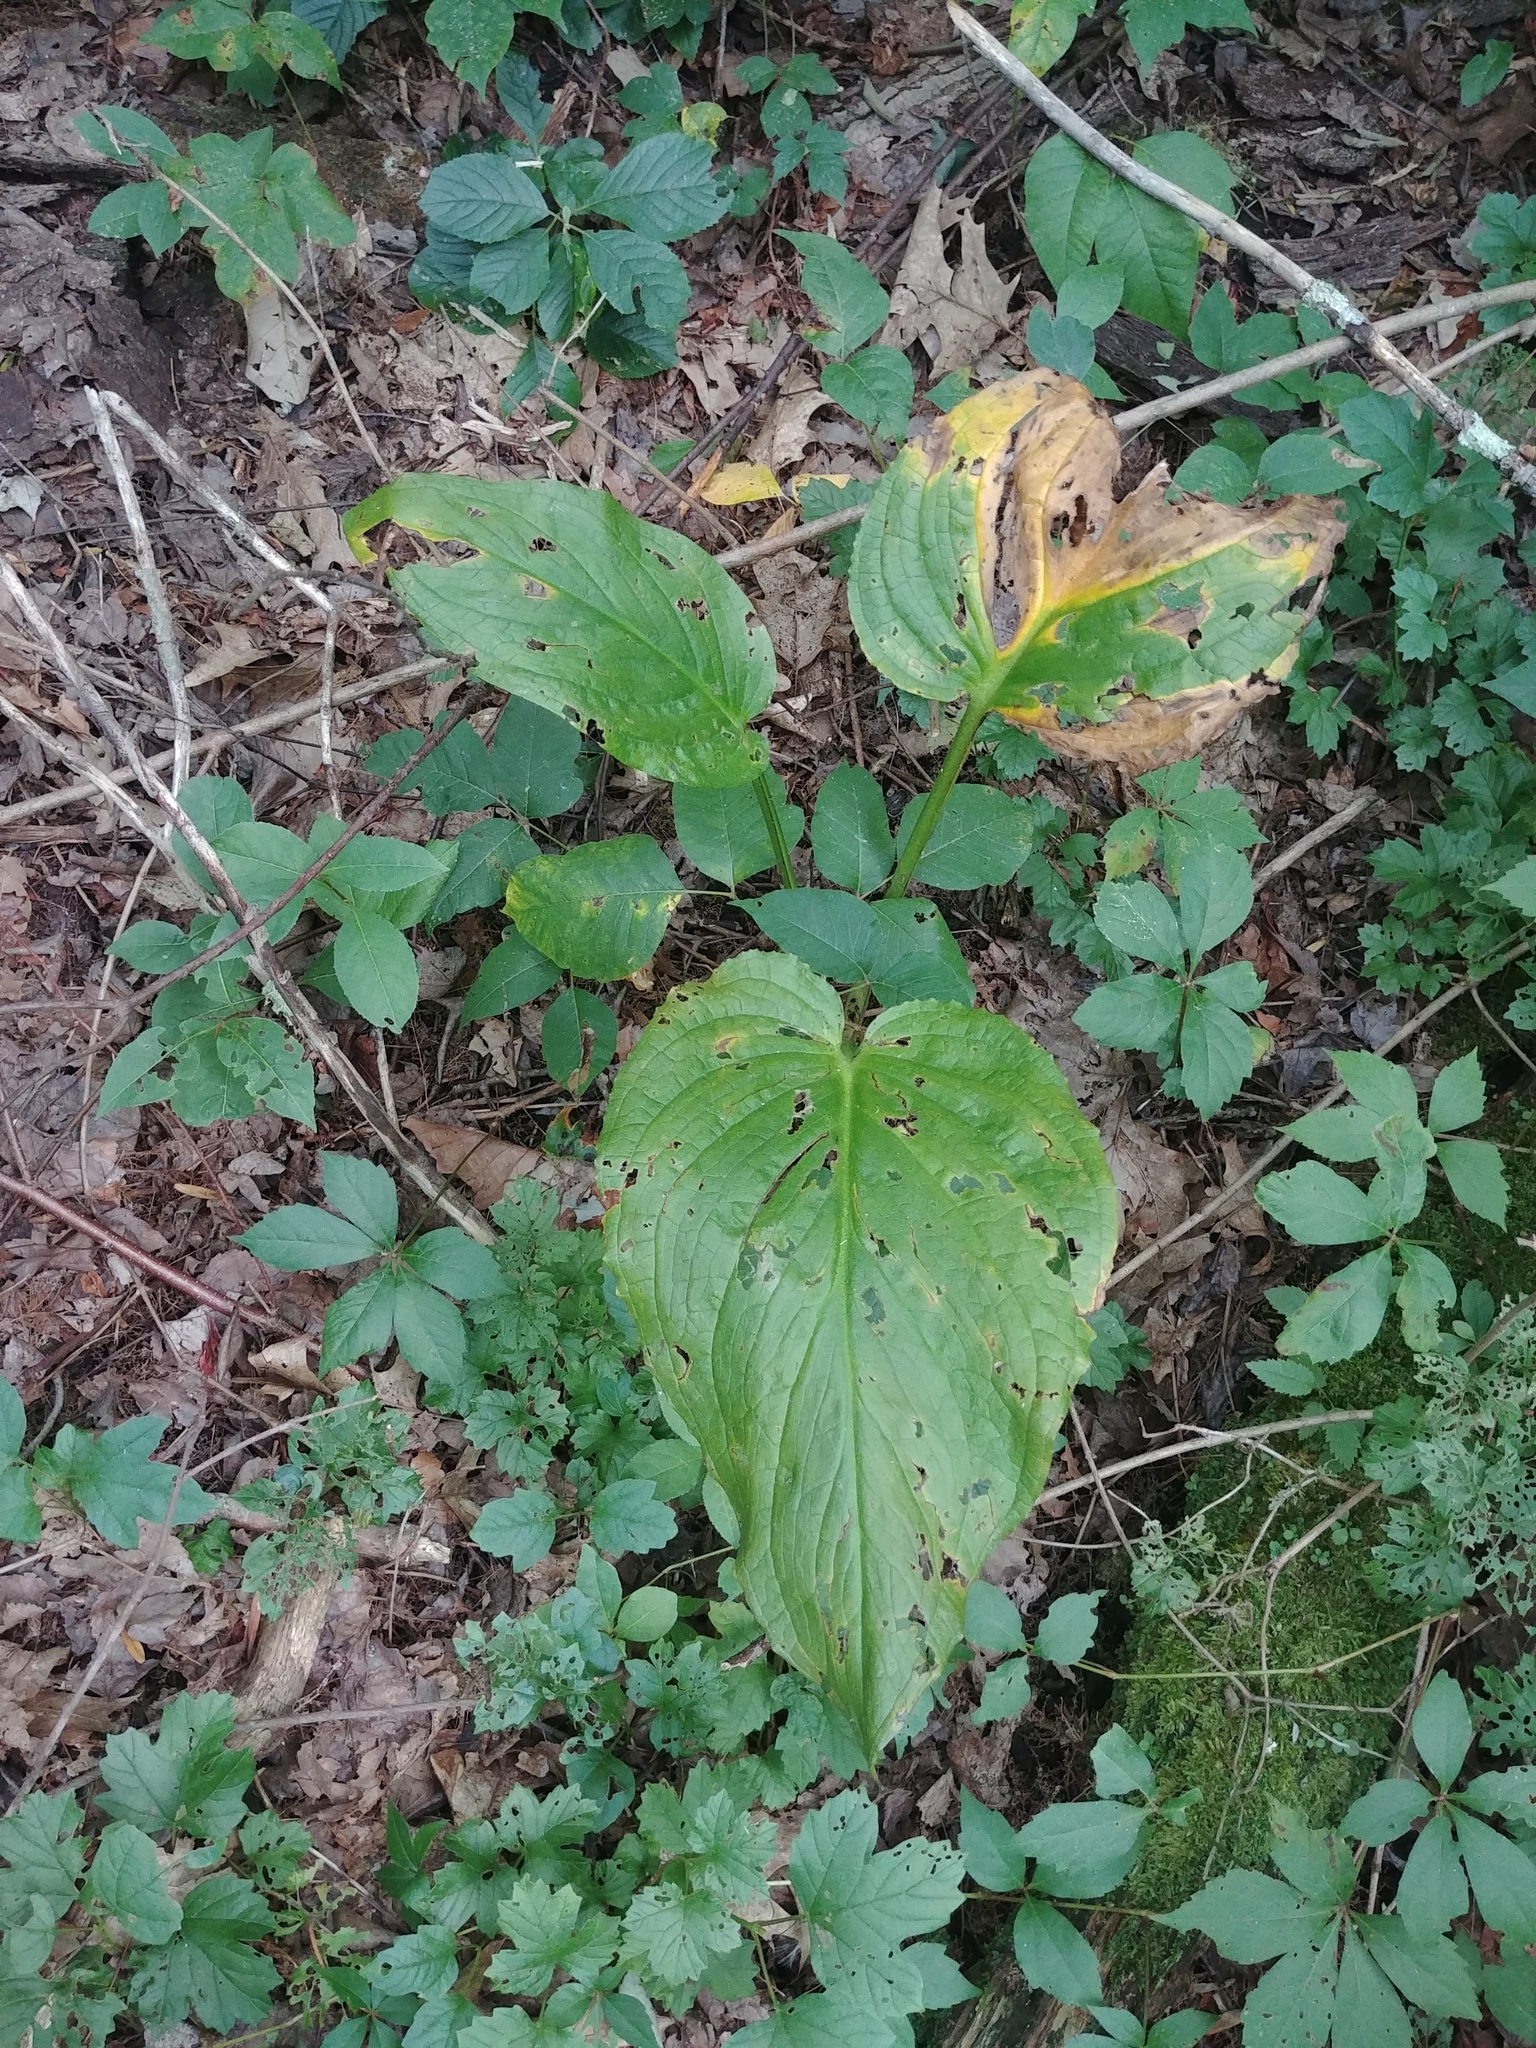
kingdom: Plantae
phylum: Tracheophyta
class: Liliopsida
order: Alismatales
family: Araceae
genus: Symplocarpus
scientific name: Symplocarpus foetidus
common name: Eastern skunk cabbage
